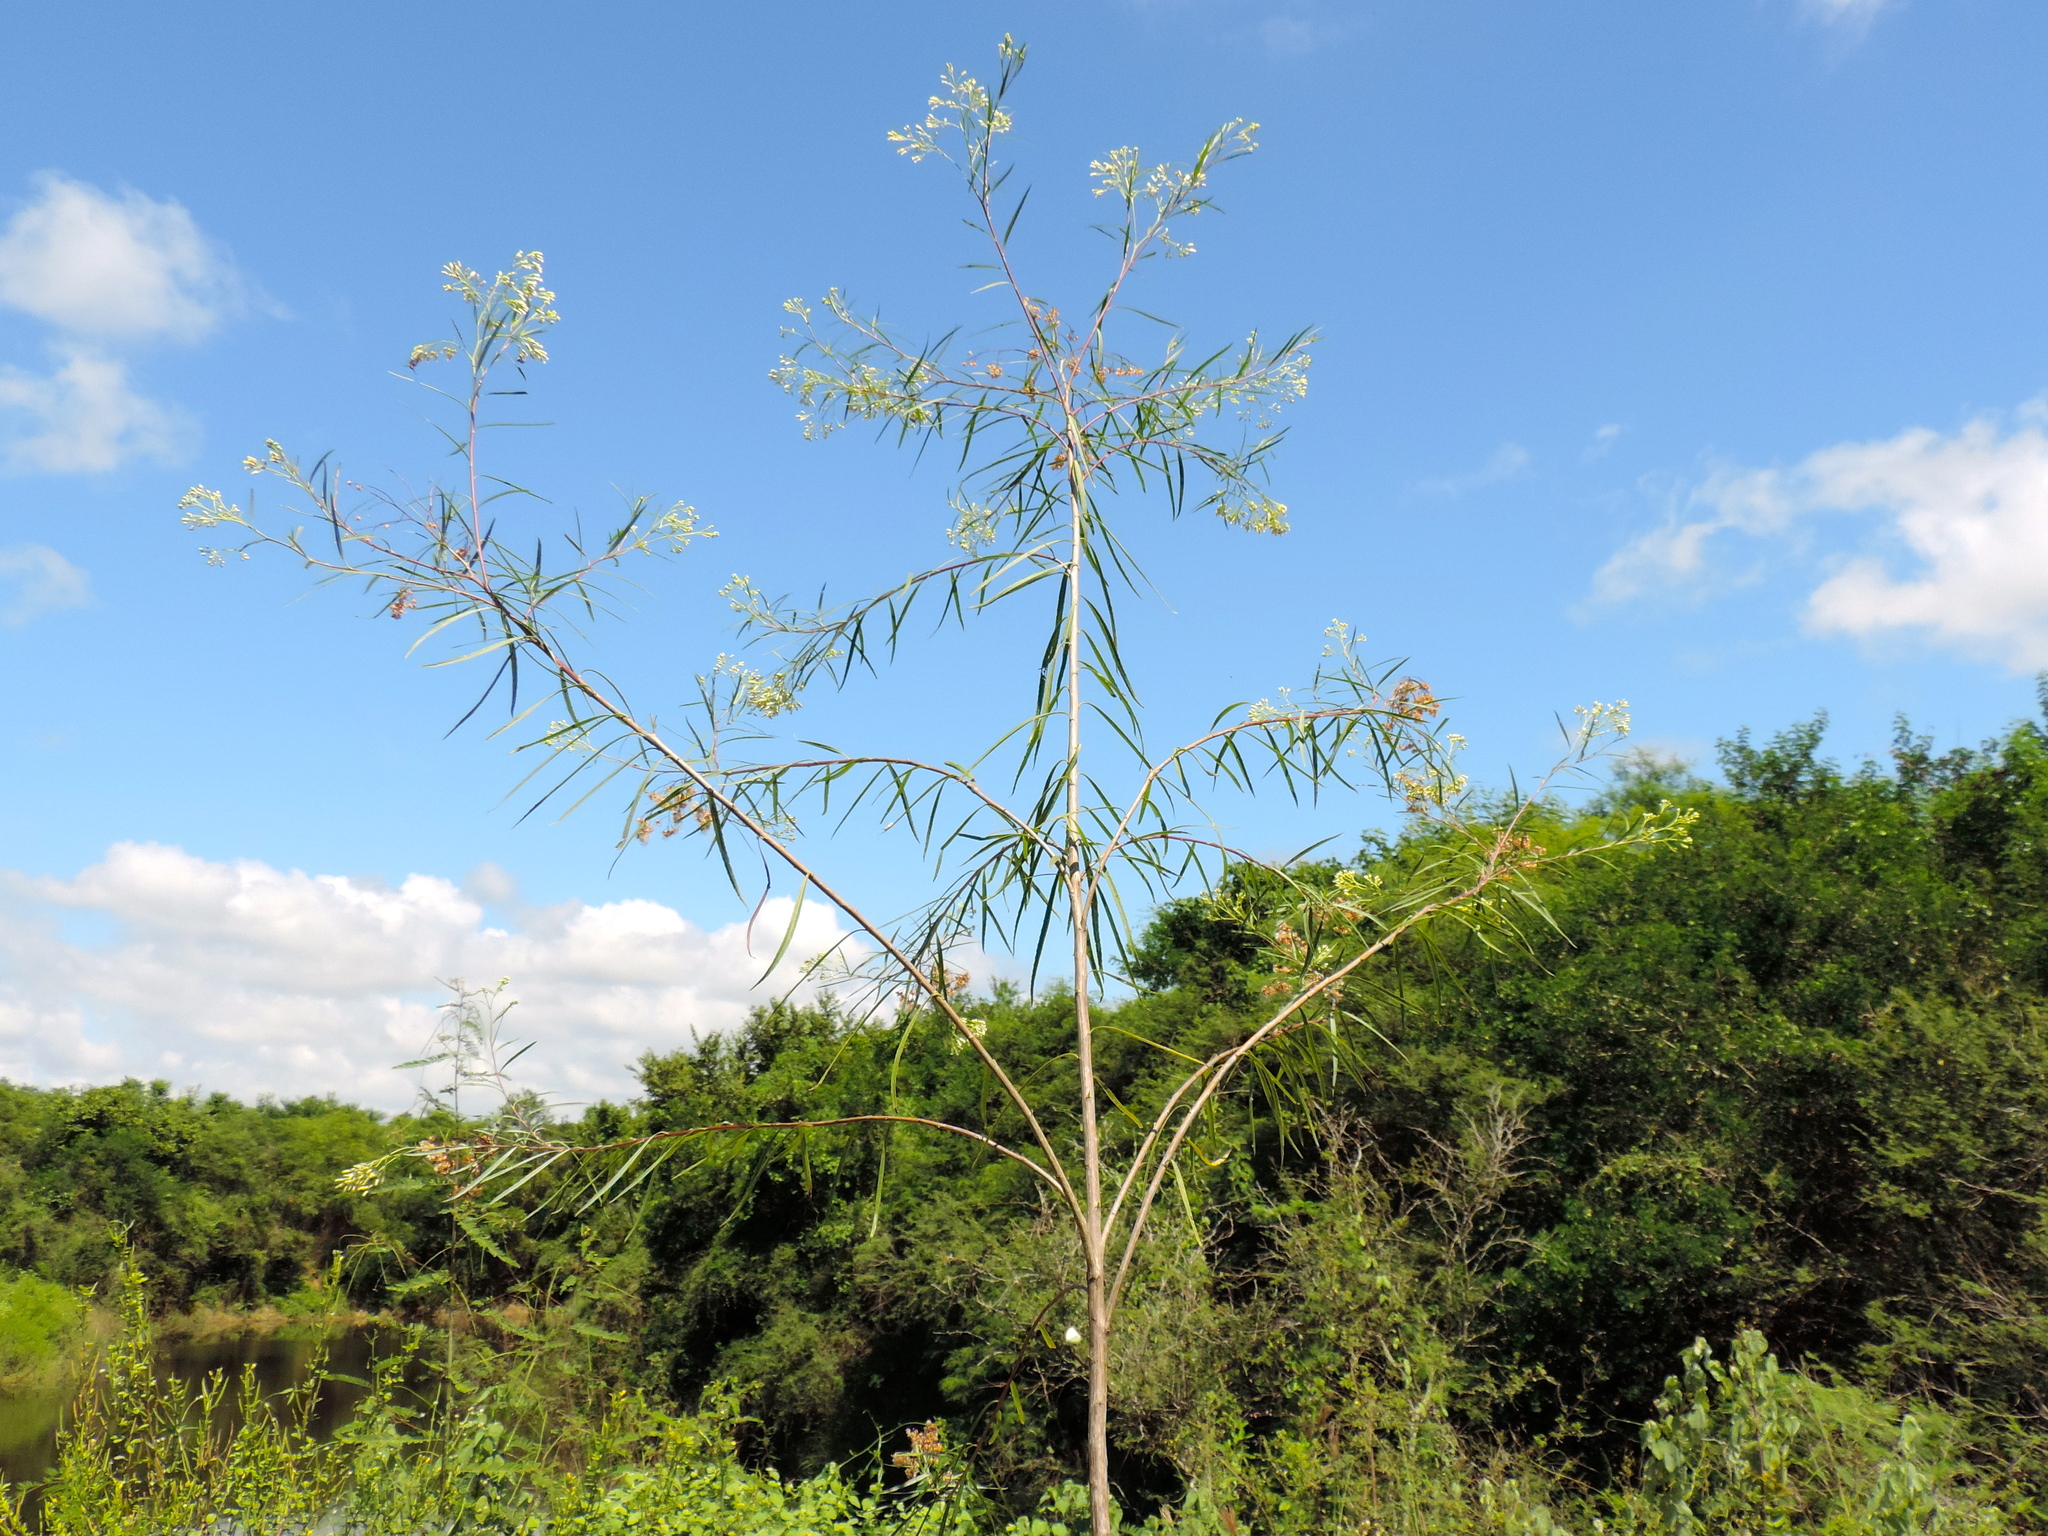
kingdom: Plantae
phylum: Tracheophyta
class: Magnoliopsida
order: Asterales
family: Asteraceae
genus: Baccharis
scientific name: Baccharis salicifolia
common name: Sticky baccharis
